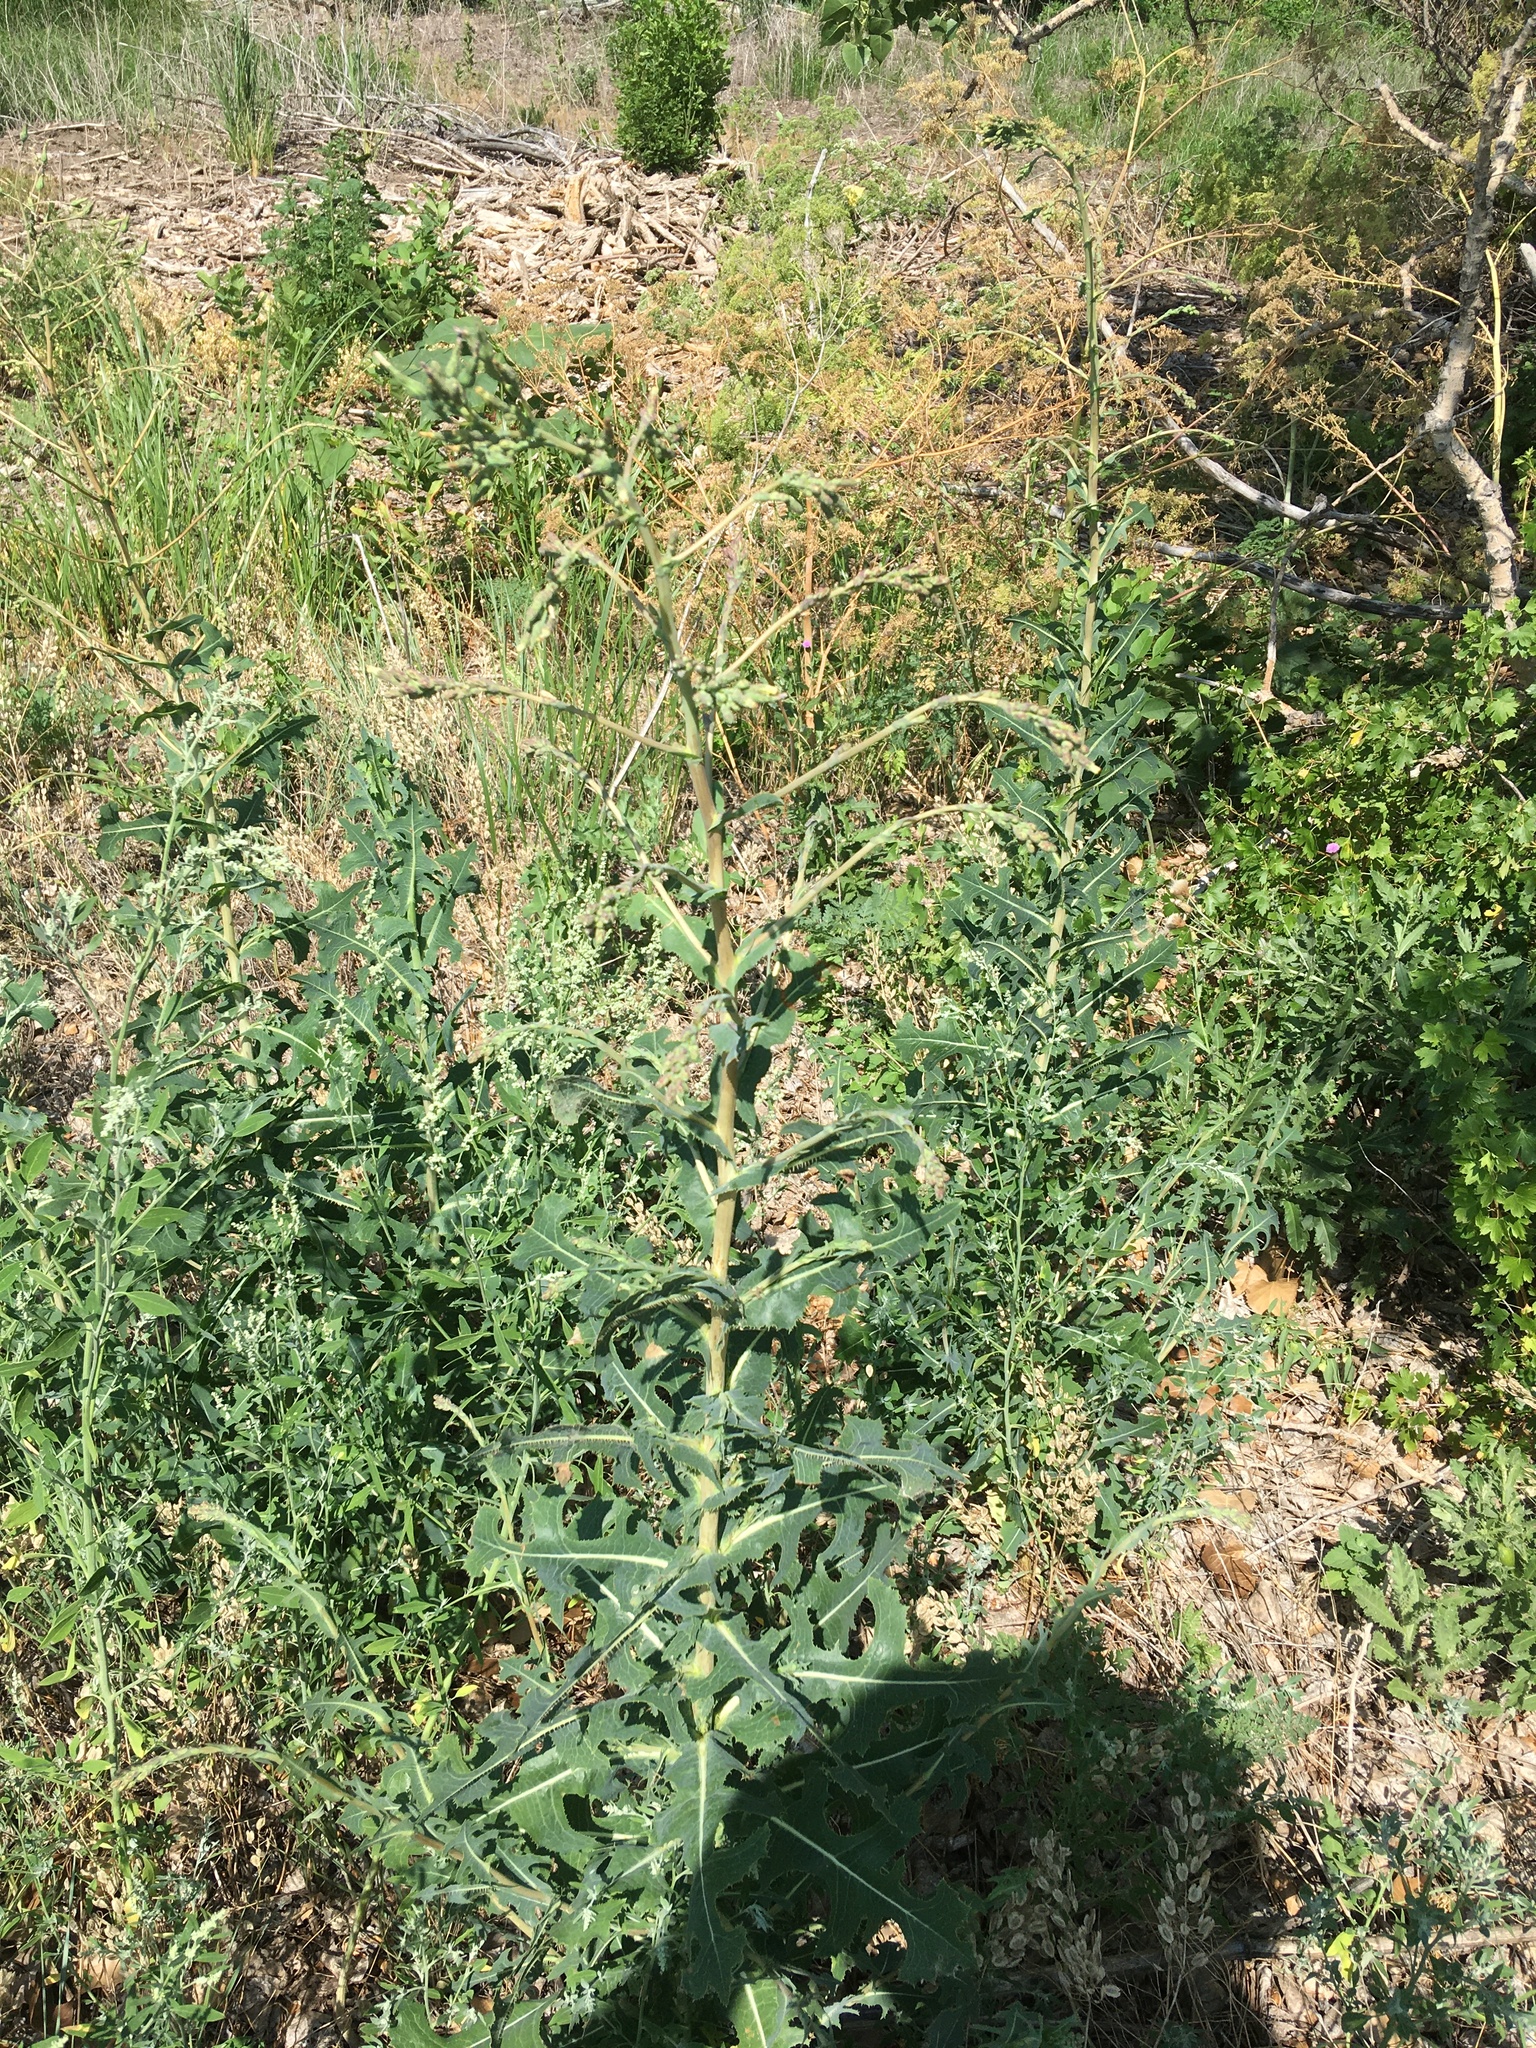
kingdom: Plantae
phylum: Tracheophyta
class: Magnoliopsida
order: Asterales
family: Asteraceae
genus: Lactuca
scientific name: Lactuca serriola
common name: Prickly lettuce
